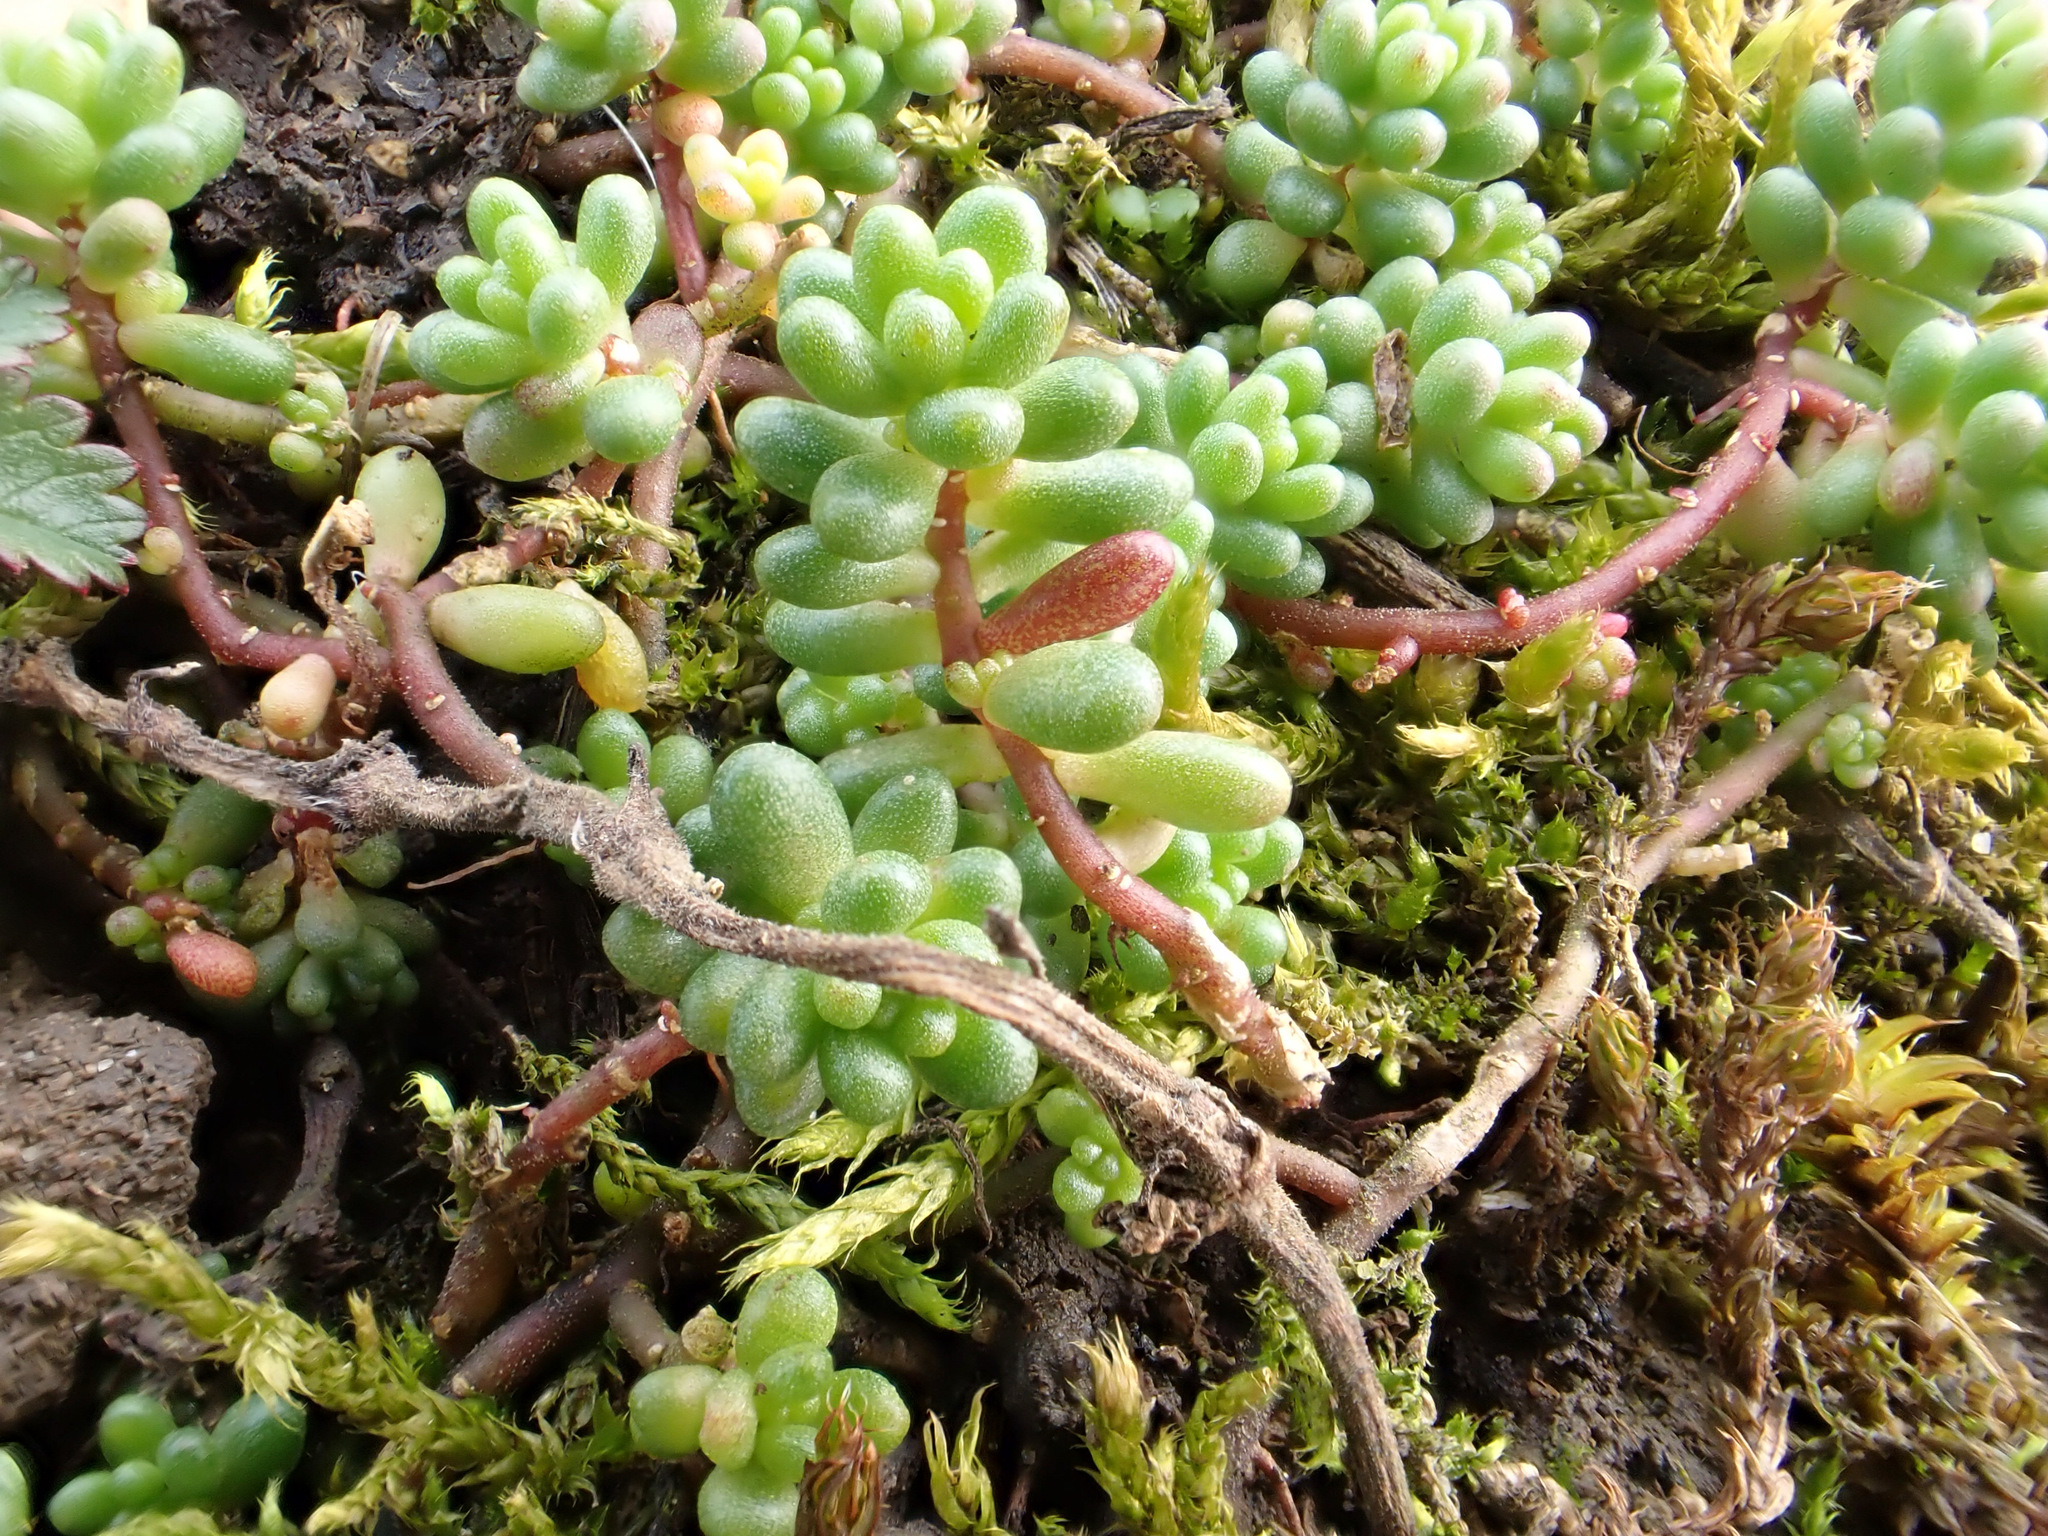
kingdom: Plantae
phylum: Tracheophyta
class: Magnoliopsida
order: Saxifragales
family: Crassulaceae
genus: Sedum
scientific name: Sedum album
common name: White stonecrop
